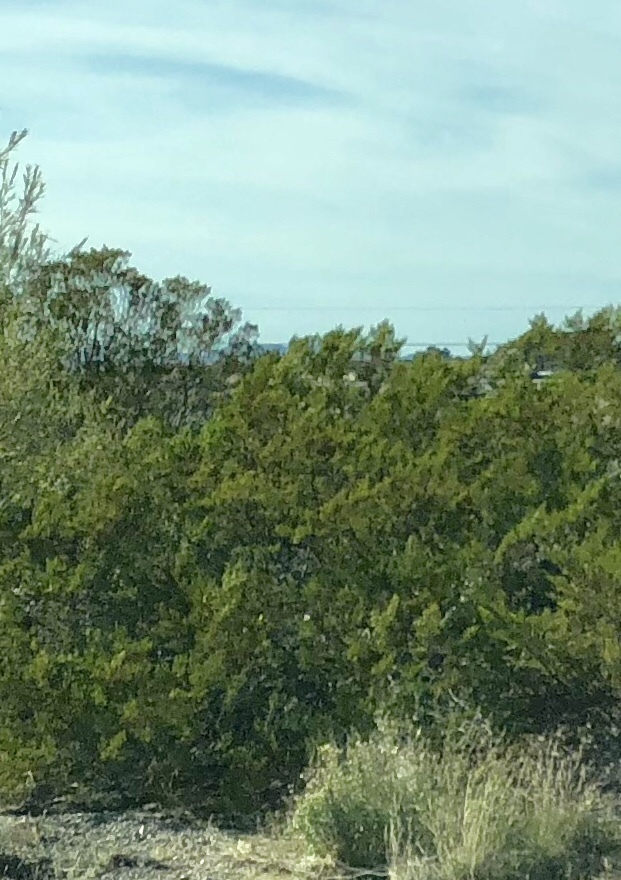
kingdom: Plantae
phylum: Tracheophyta
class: Magnoliopsida
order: Zygophyllales
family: Zygophyllaceae
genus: Larrea
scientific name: Larrea tridentata
